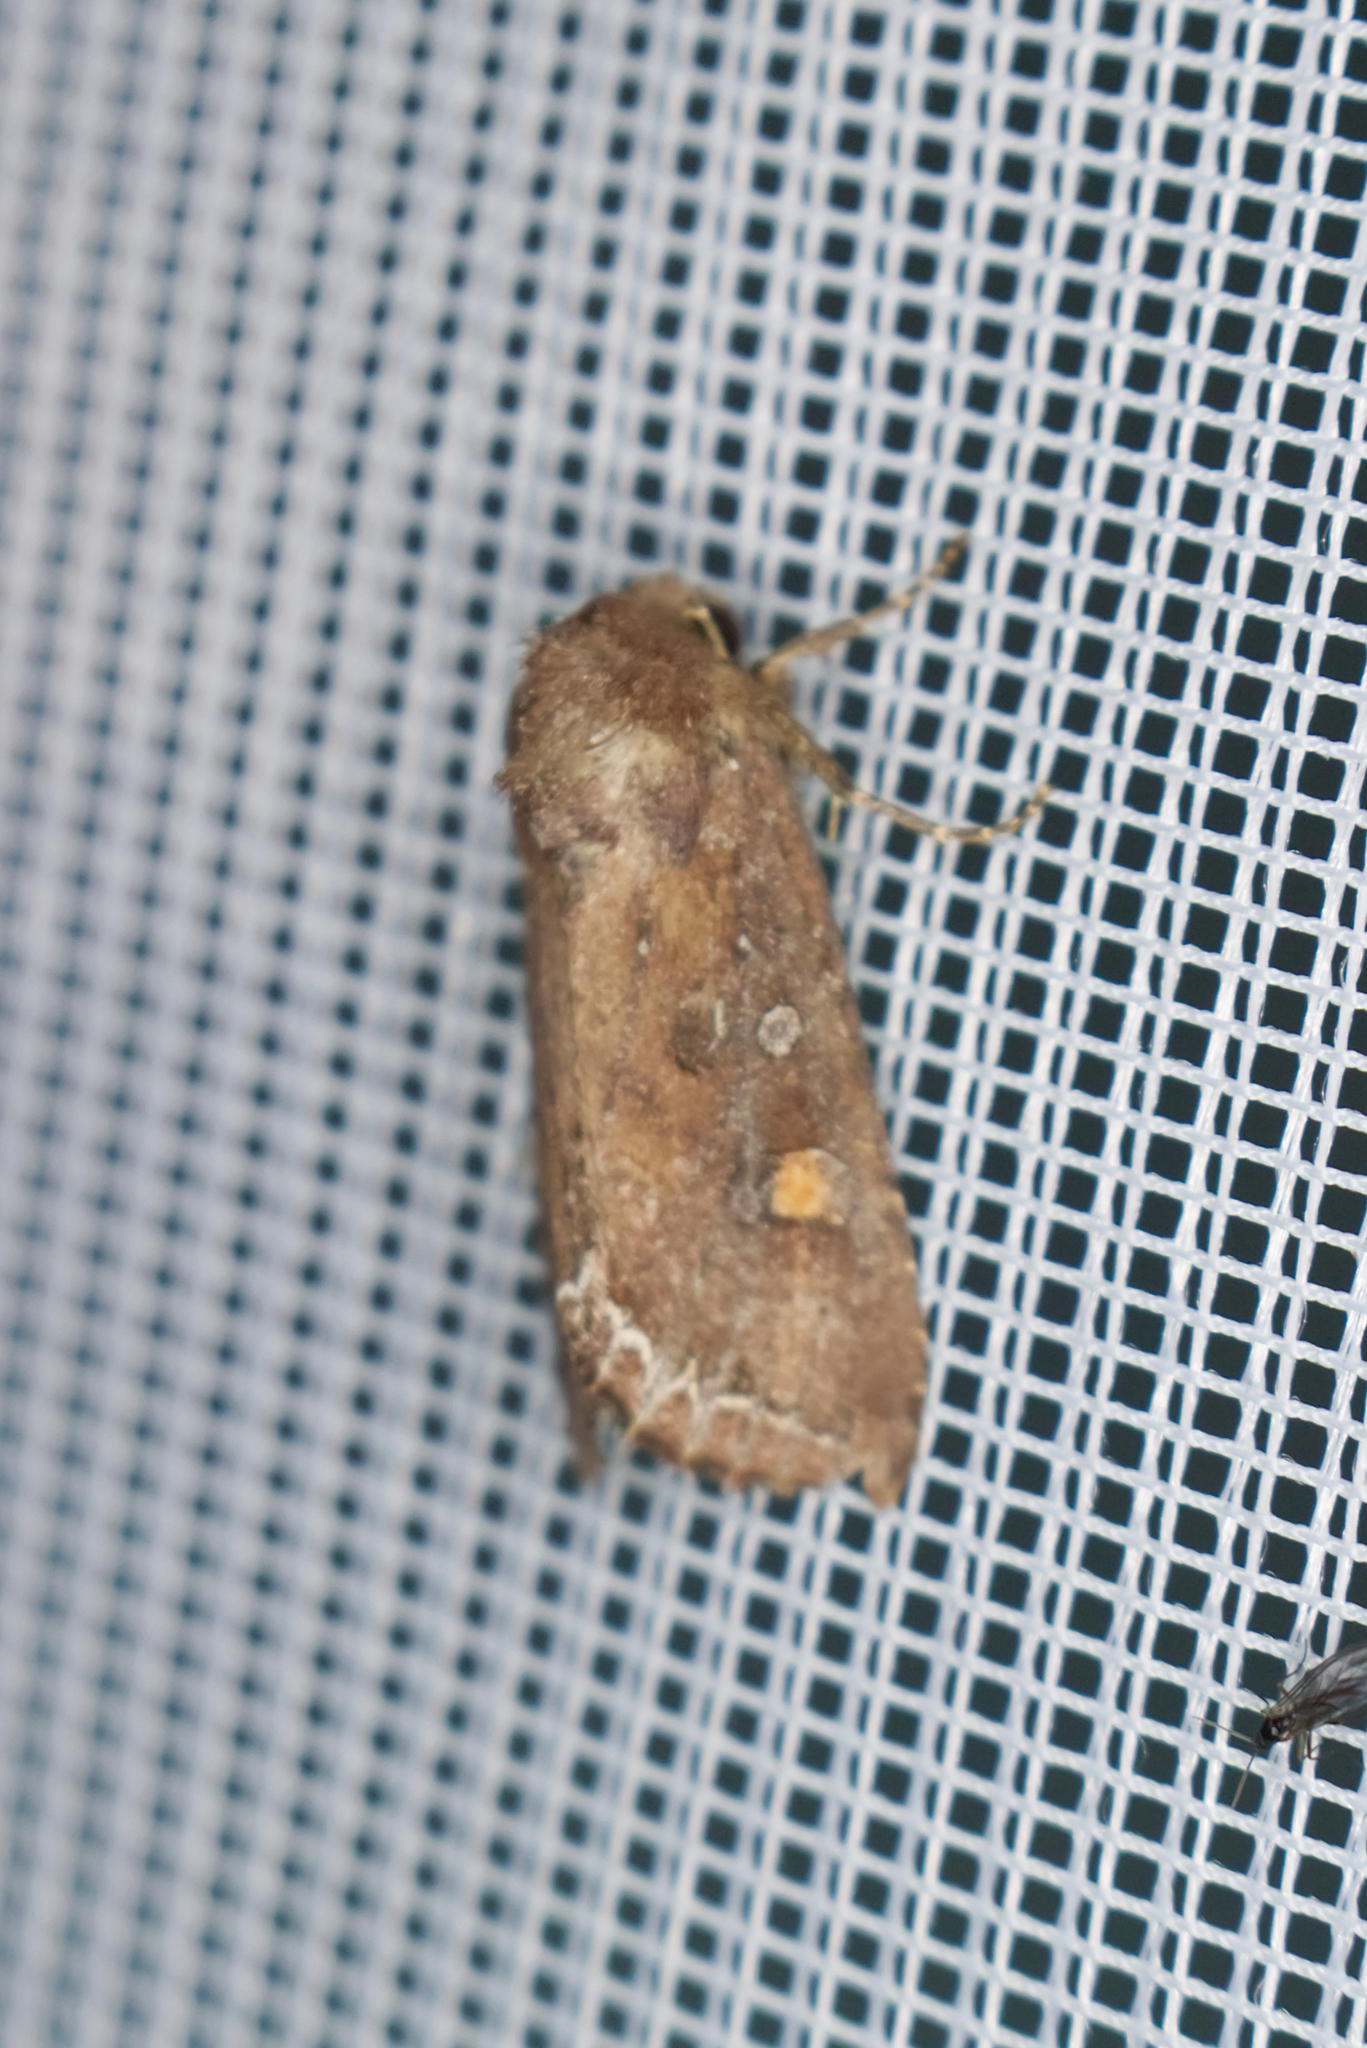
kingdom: Animalia
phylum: Arthropoda
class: Insecta
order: Lepidoptera
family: Noctuidae
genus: Lacanobia
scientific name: Lacanobia oleracea
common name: Bright-line brown-eye
